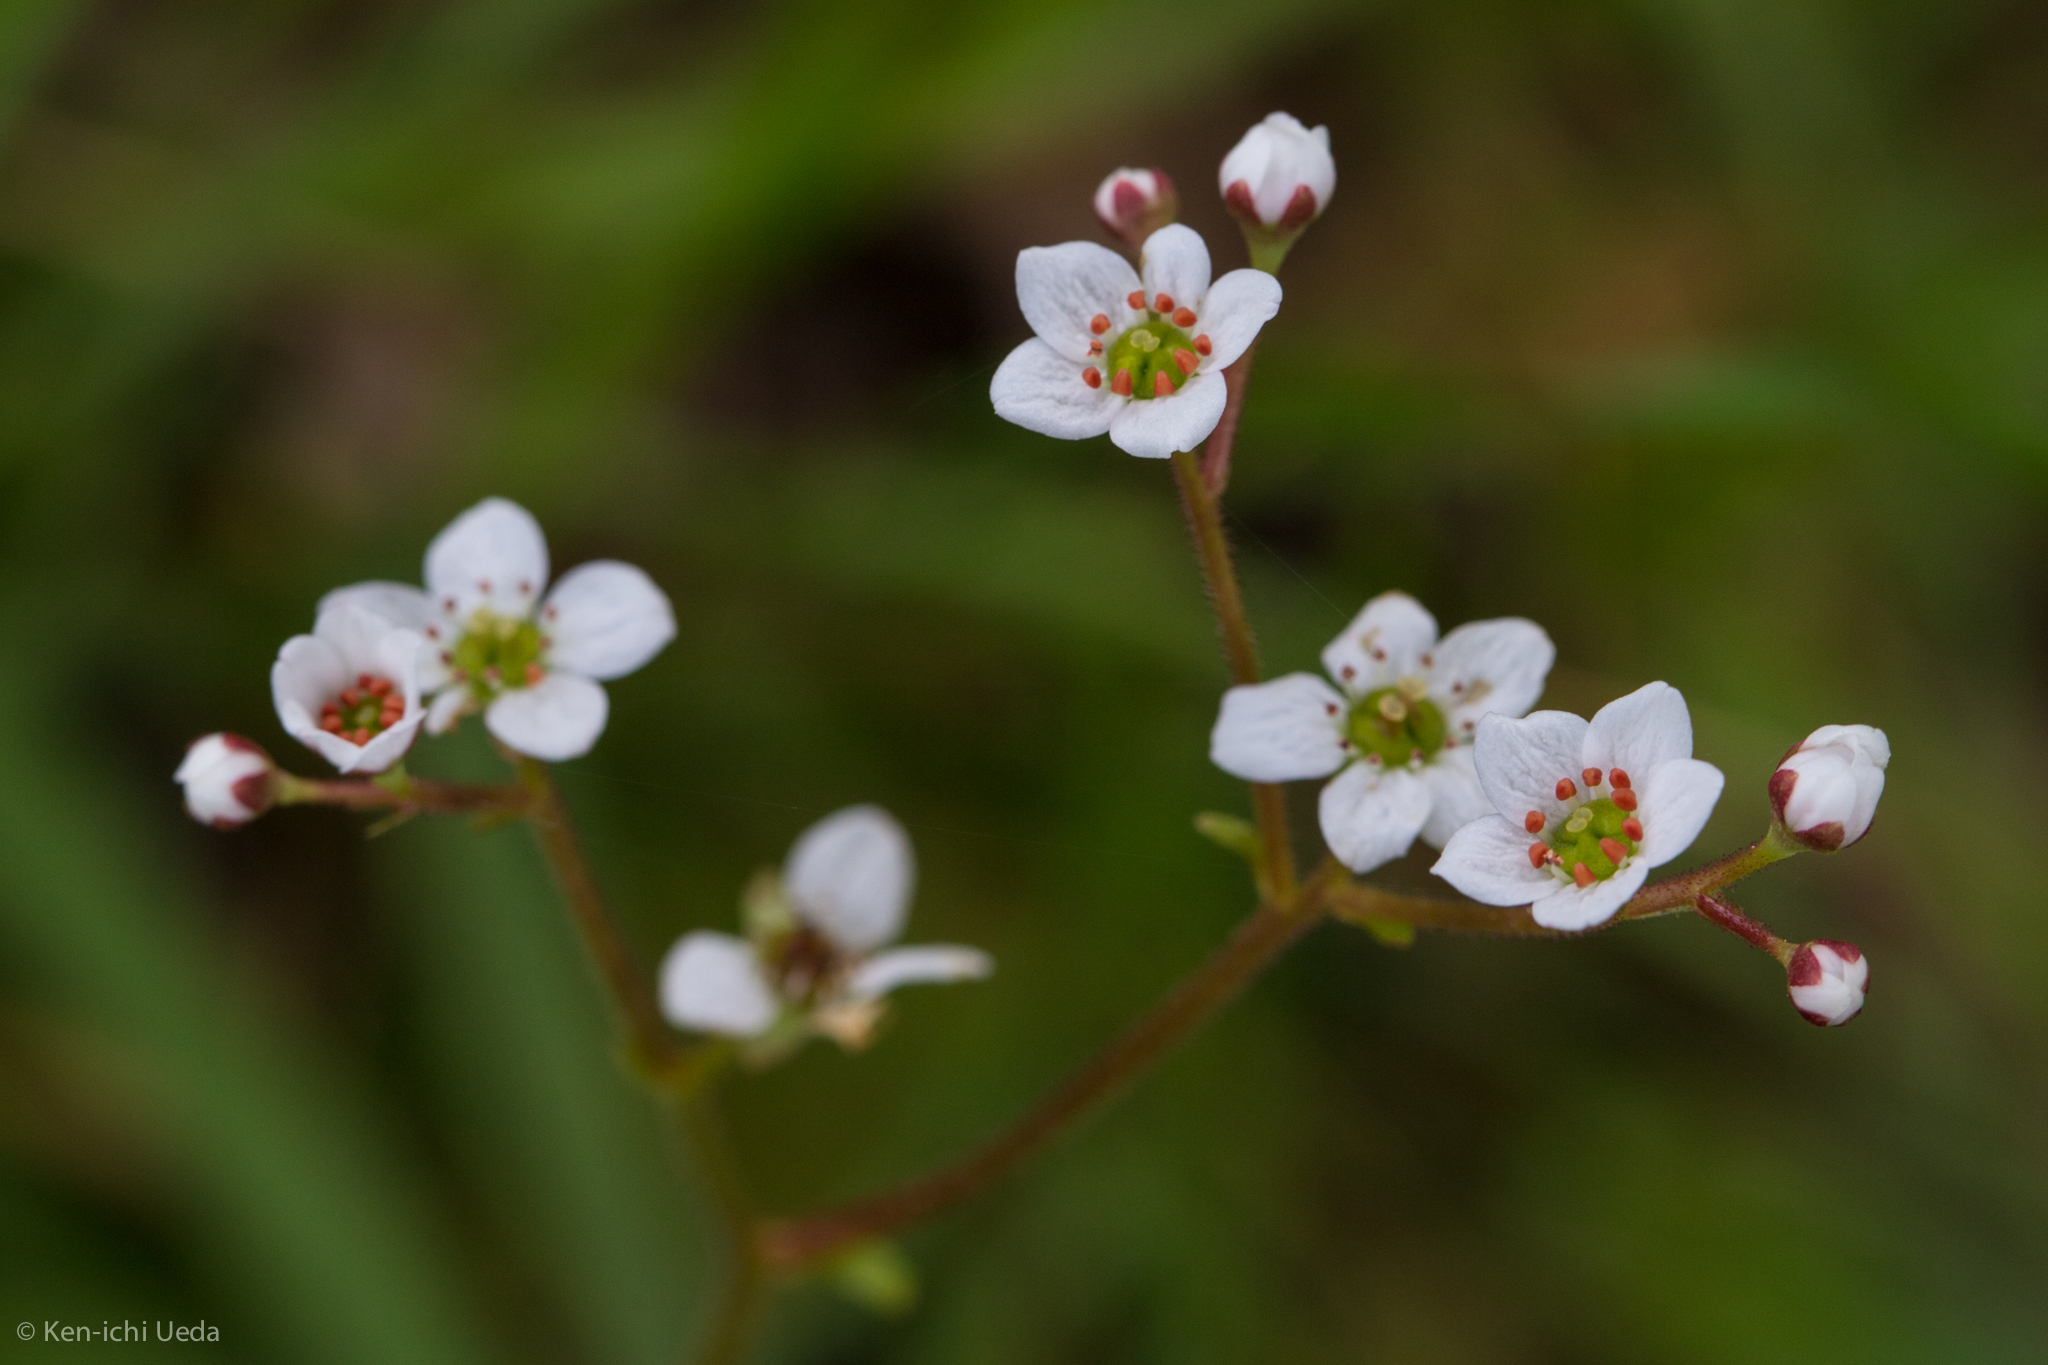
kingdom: Plantae
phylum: Tracheophyta
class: Magnoliopsida
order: Saxifragales
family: Saxifragaceae
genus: Micranthes
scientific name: Micranthes californica
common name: California saxifrage
